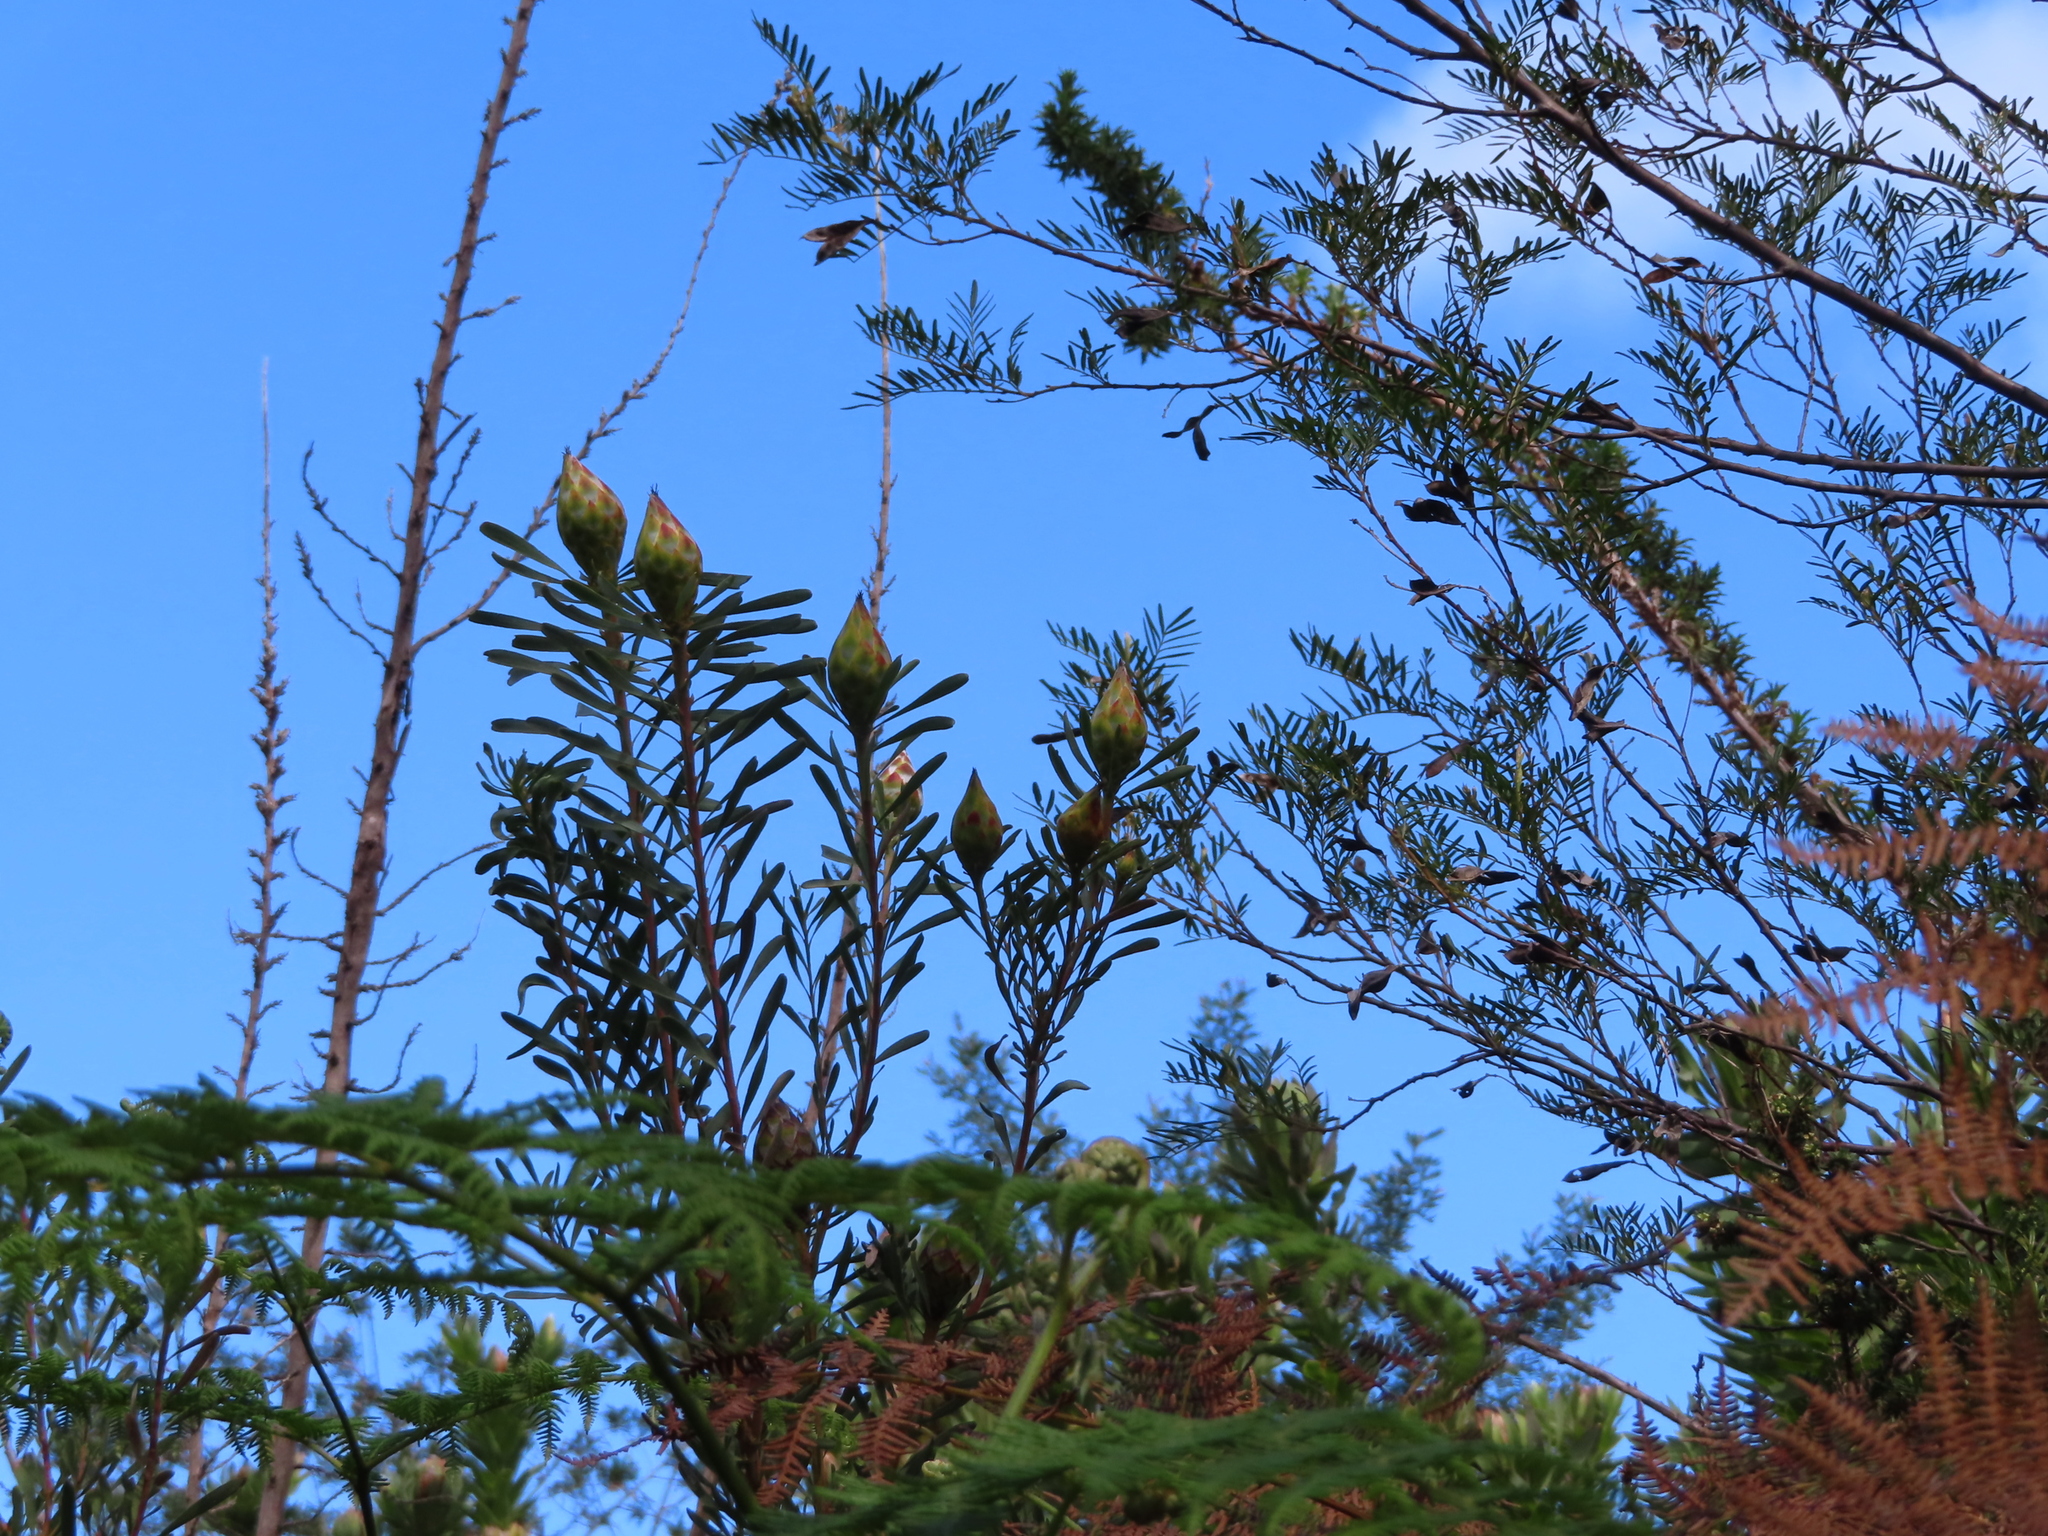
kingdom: Plantae
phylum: Tracheophyta
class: Magnoliopsida
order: Proteales
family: Proteaceae
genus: Leucadendron
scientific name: Leucadendron rubrum
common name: Spinning top
